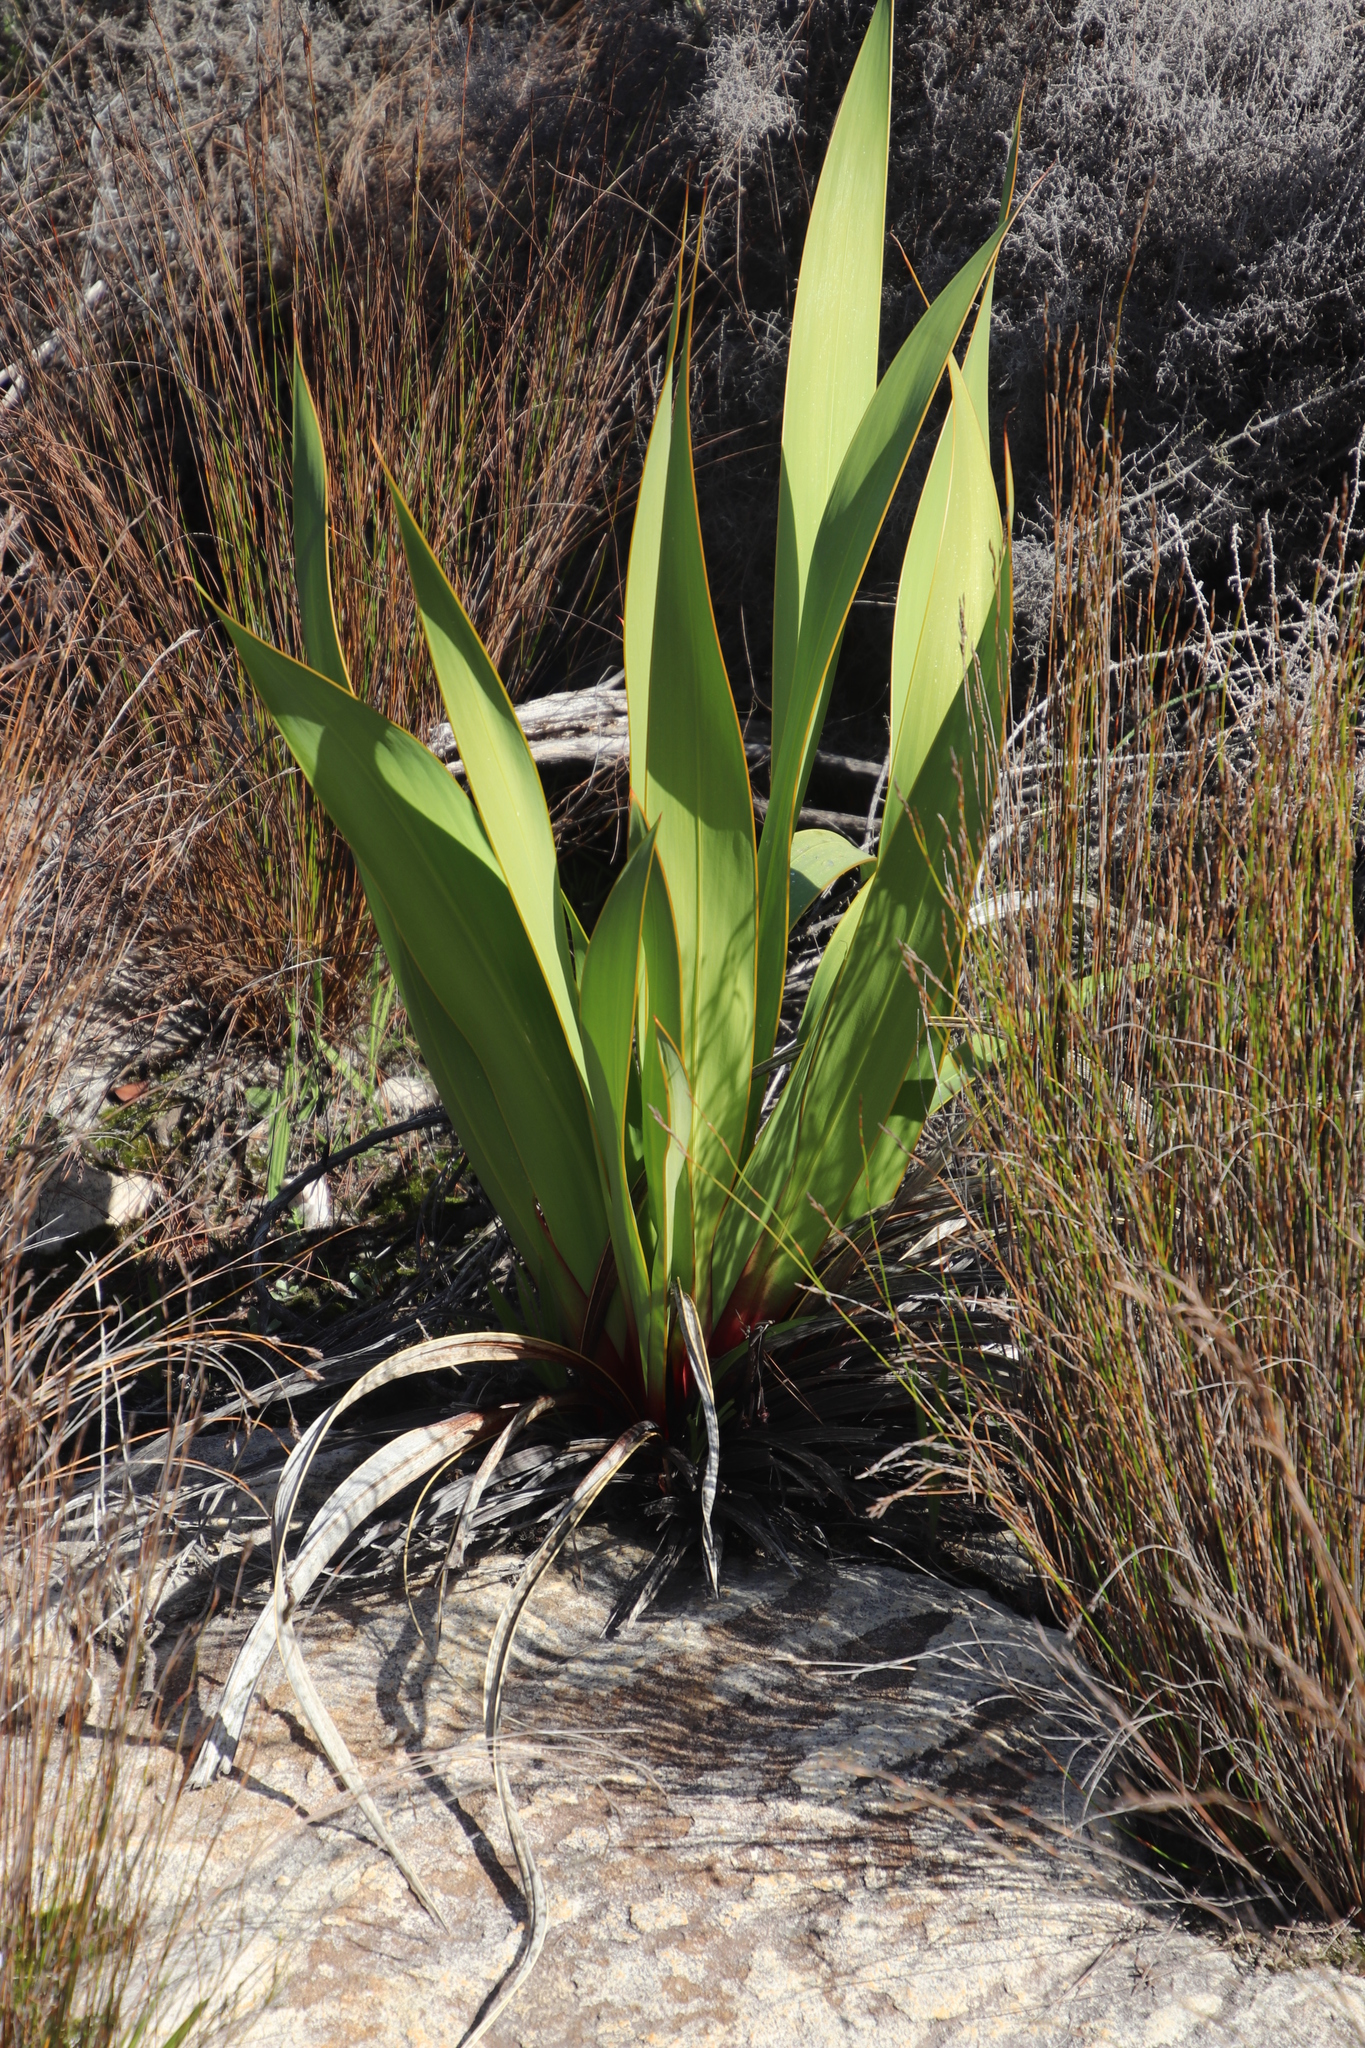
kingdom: Plantae
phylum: Tracheophyta
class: Liliopsida
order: Asparagales
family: Iridaceae
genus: Watsonia
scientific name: Watsonia vanderspuyae
